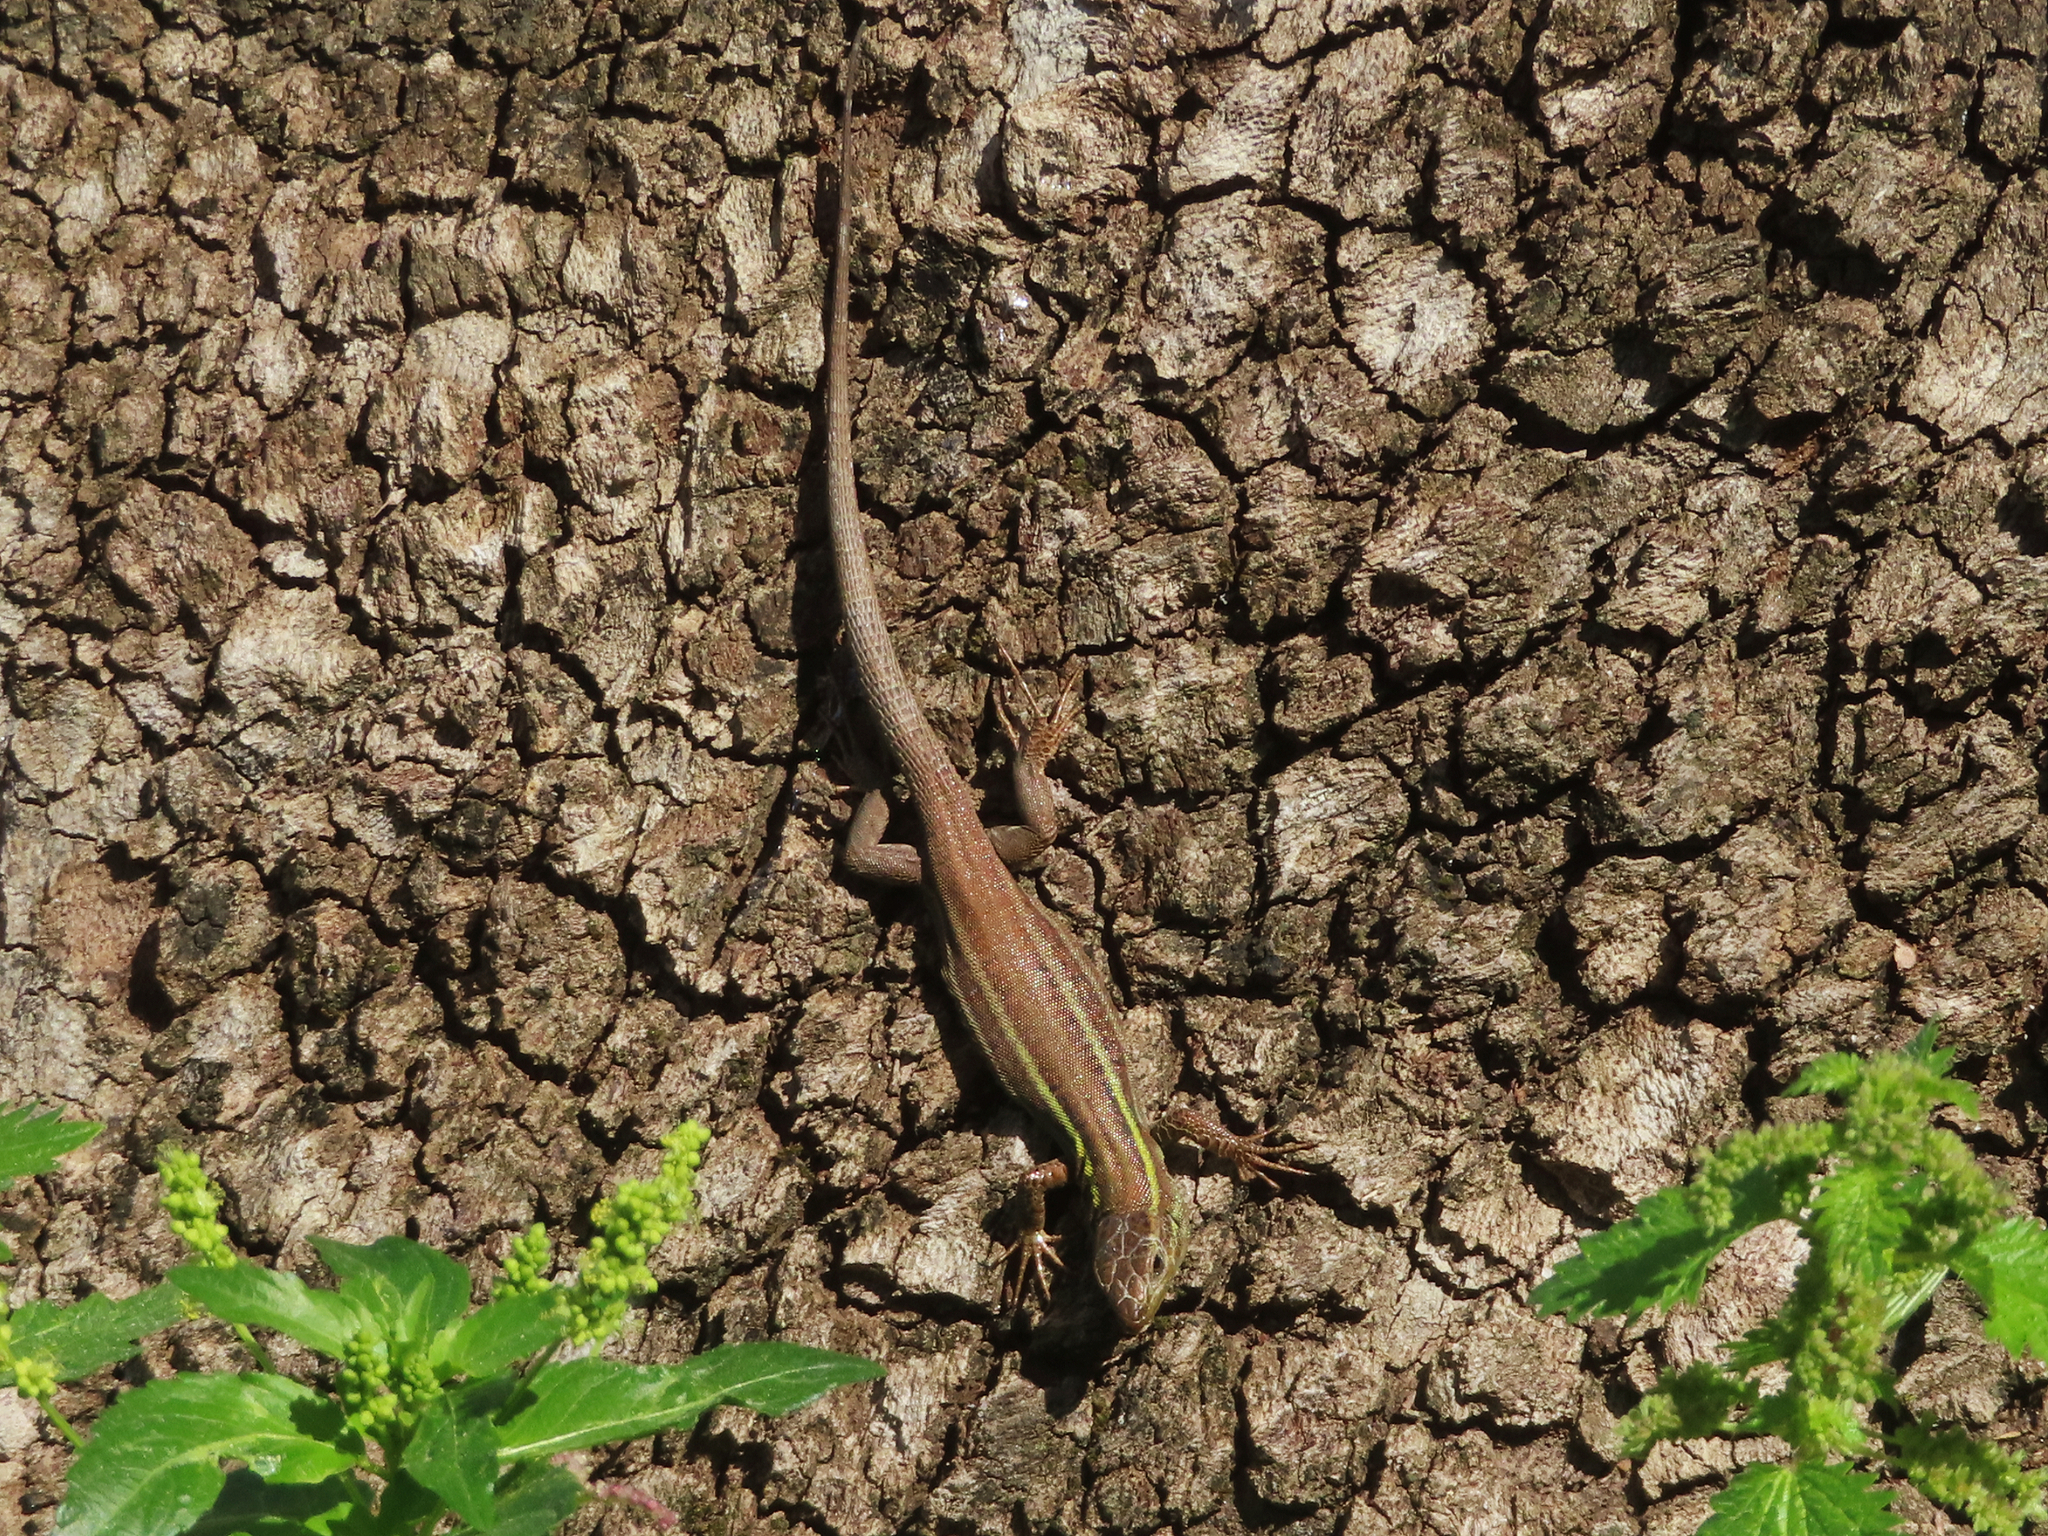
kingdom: Animalia
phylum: Chordata
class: Squamata
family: Lacertidae
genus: Podarcis
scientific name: Podarcis peloponnesiacus
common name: Peloponnese wall lizard
